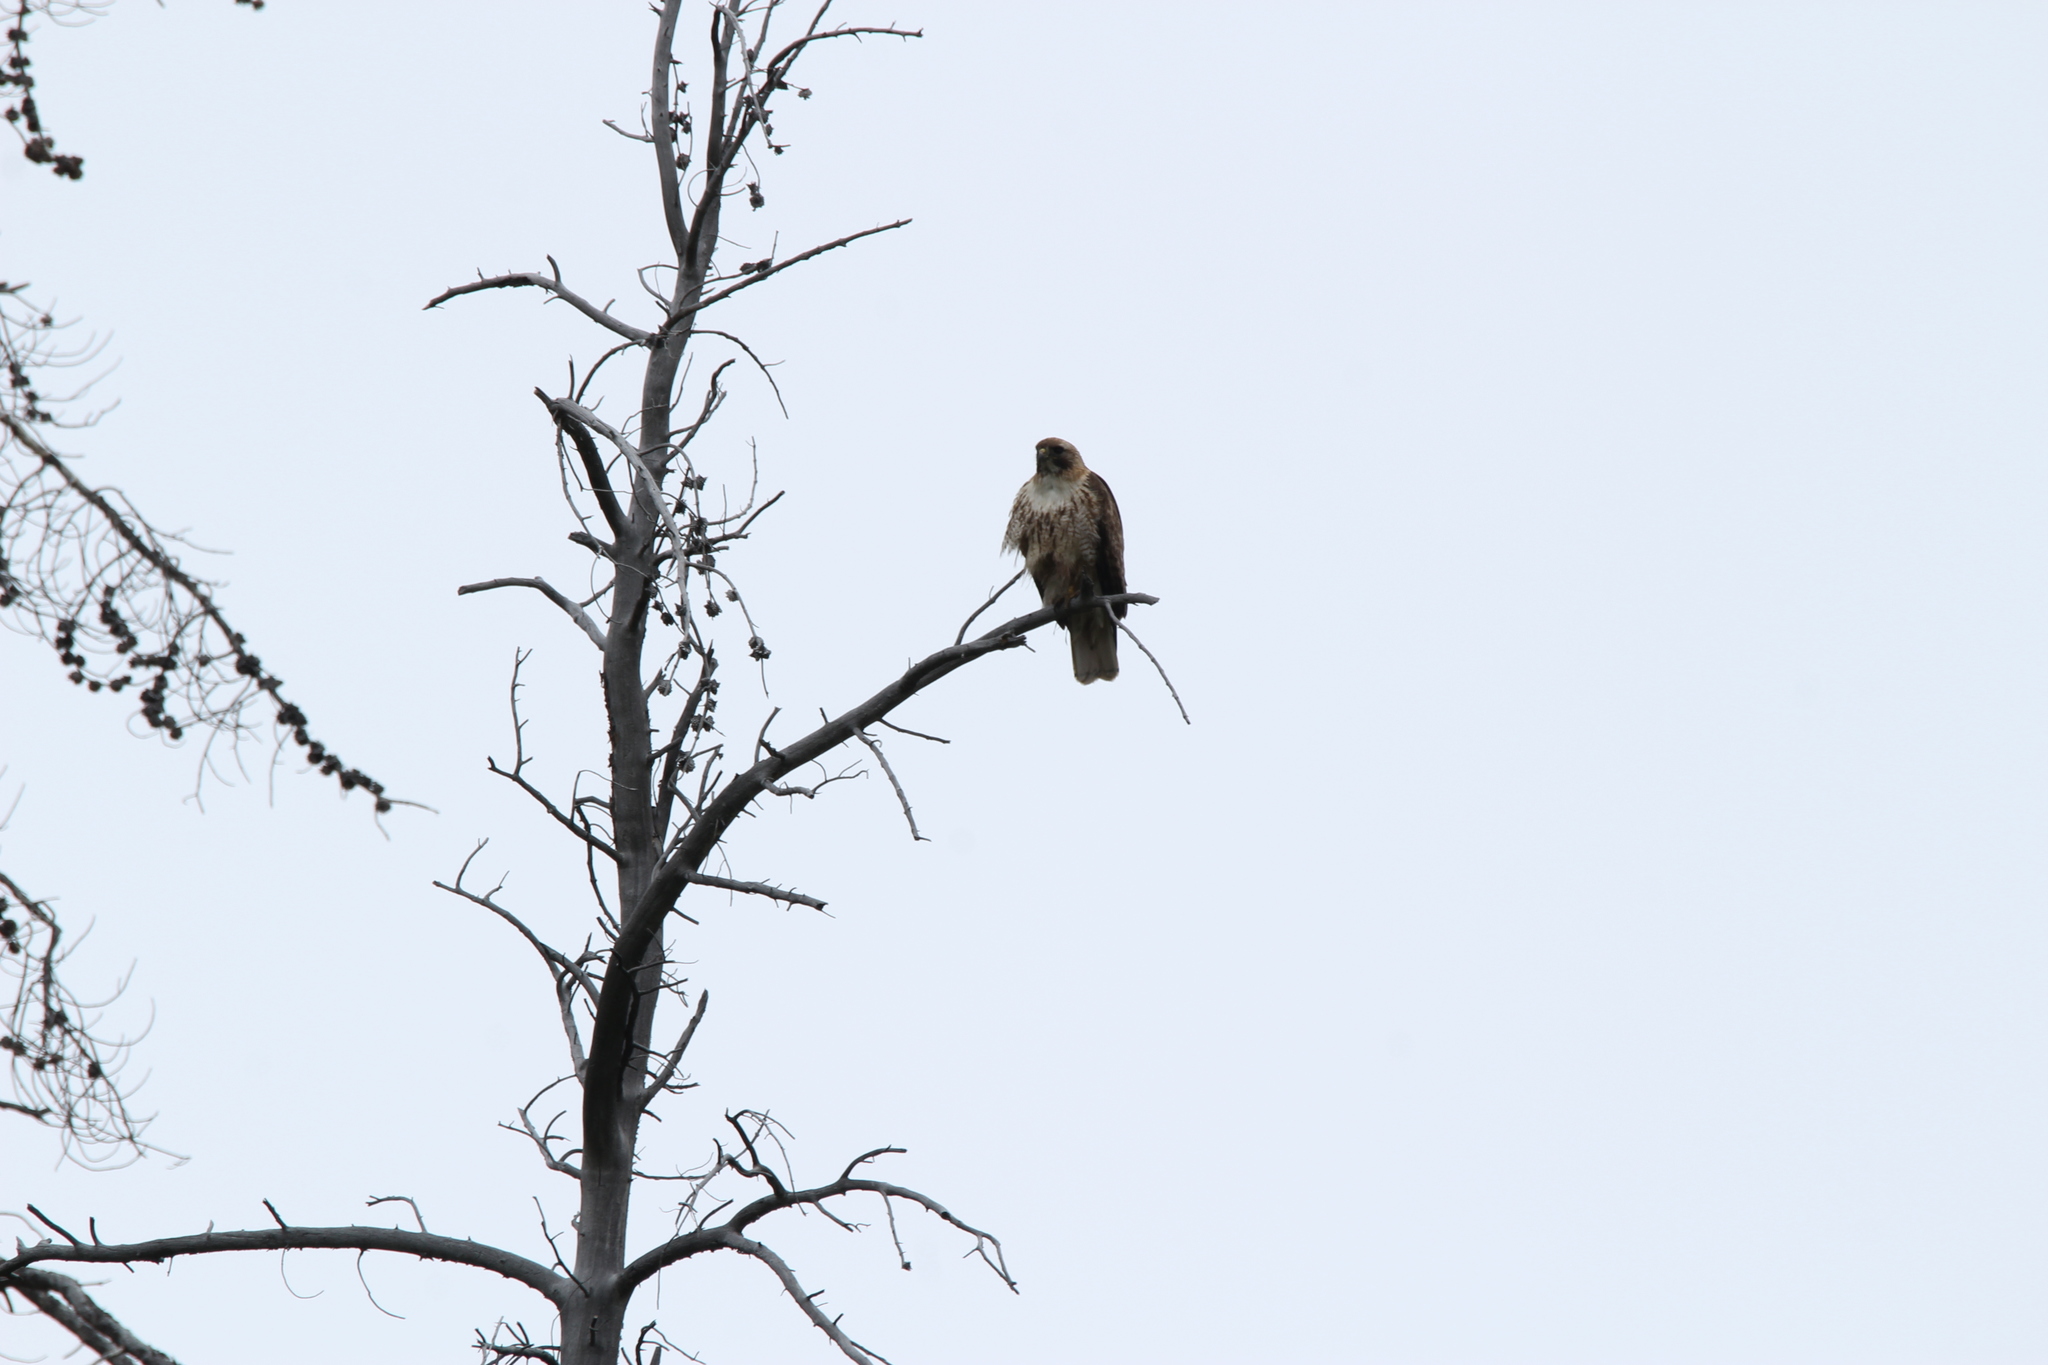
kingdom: Animalia
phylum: Chordata
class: Aves
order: Accipitriformes
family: Accipitridae
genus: Buteo
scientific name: Buteo jamaicensis
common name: Red-tailed hawk
